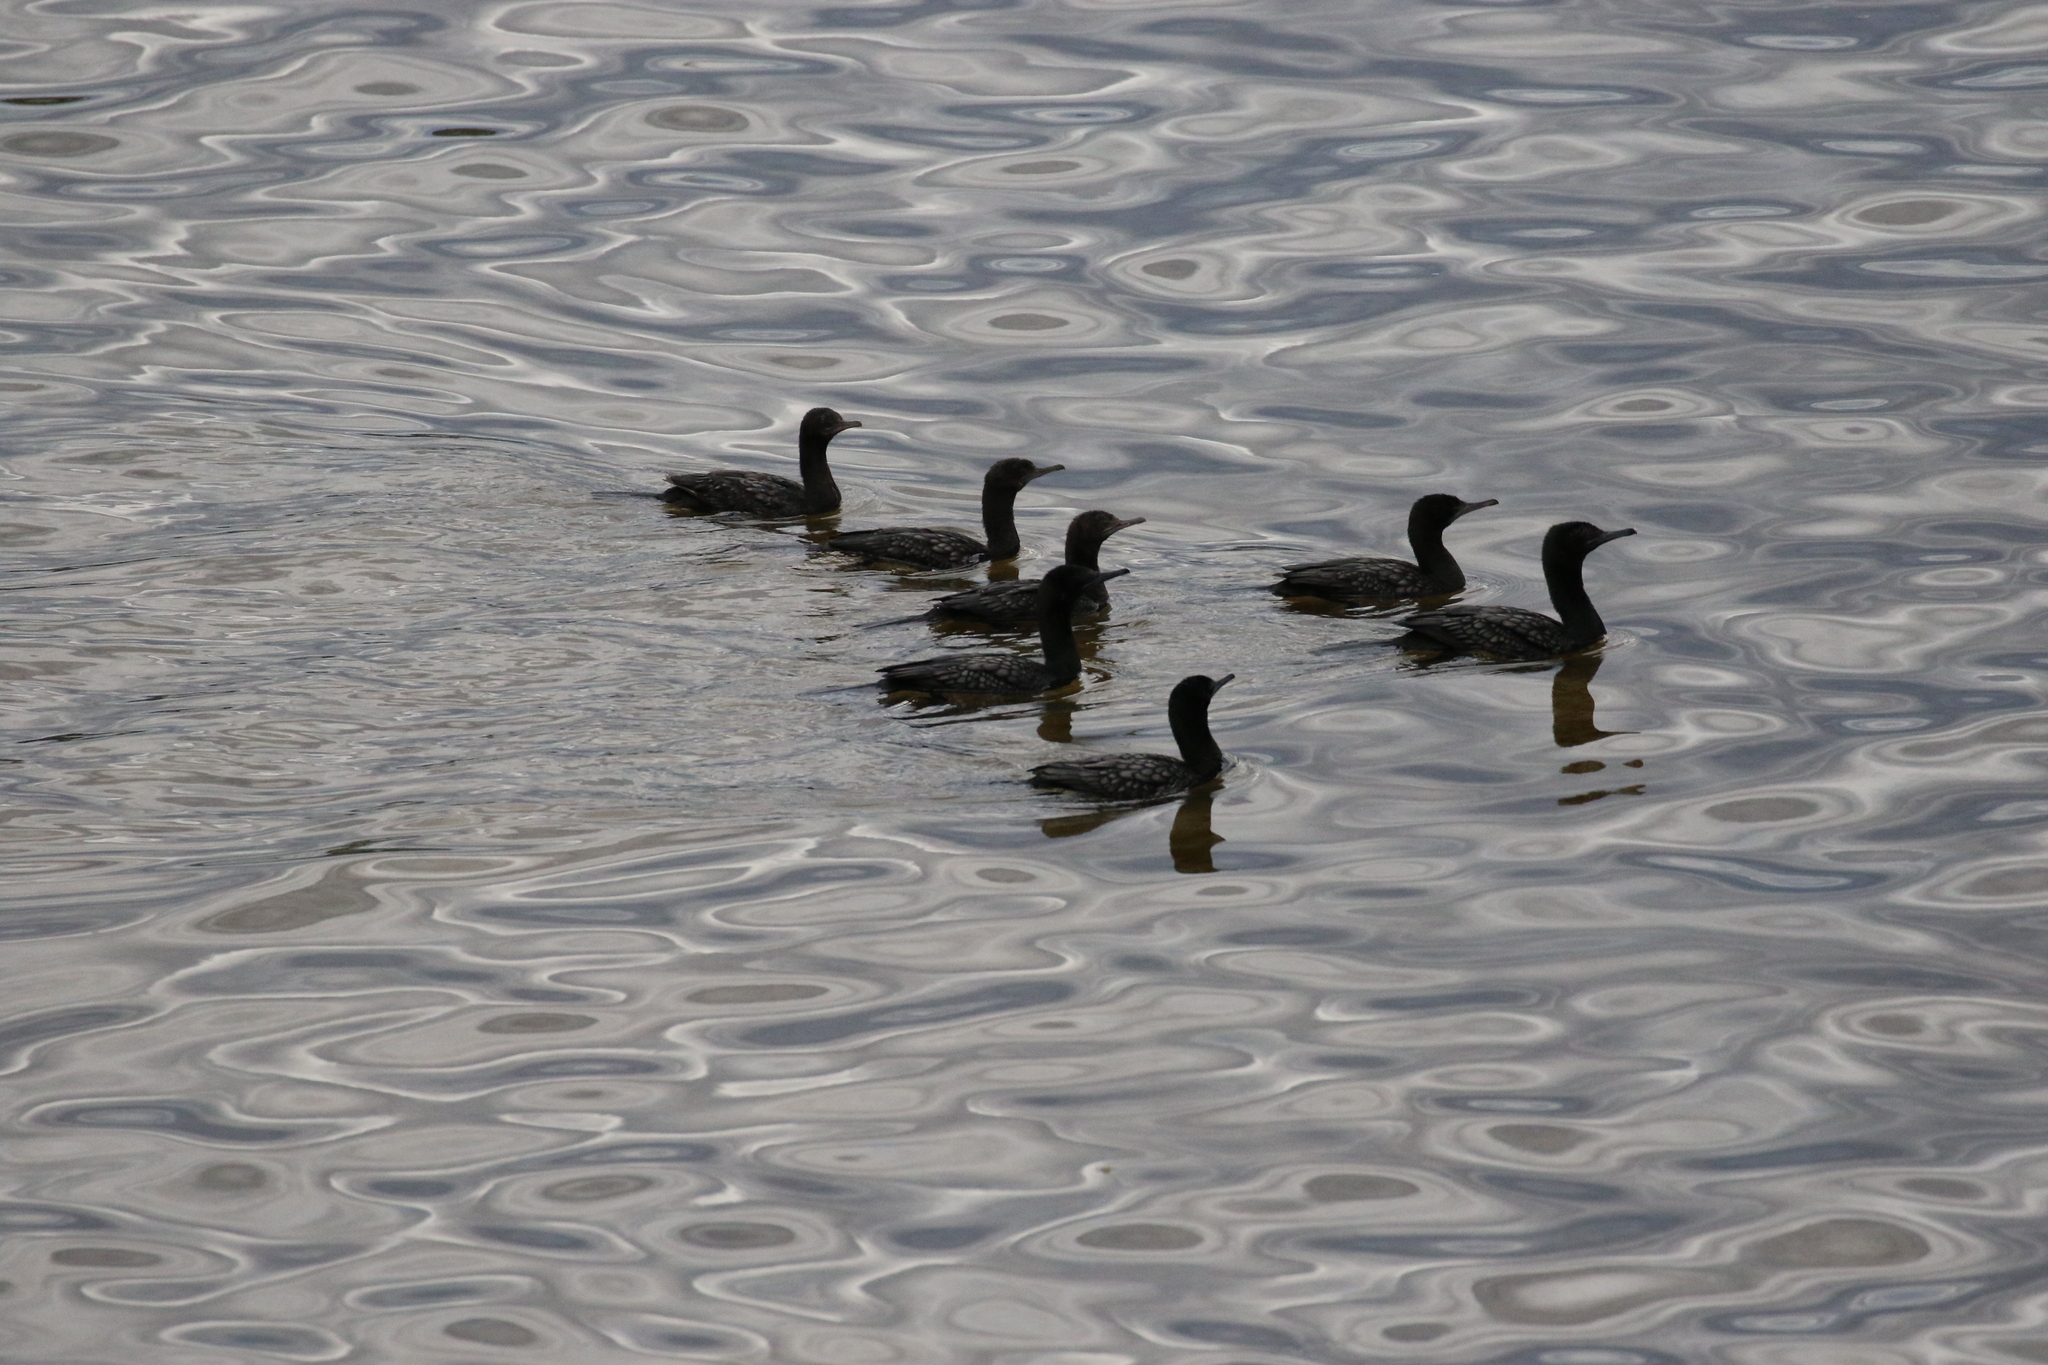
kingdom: Animalia
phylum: Chordata
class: Aves
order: Suliformes
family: Phalacrocoracidae
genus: Phalacrocorax
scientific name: Phalacrocorax sulcirostris
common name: Little black cormorant
